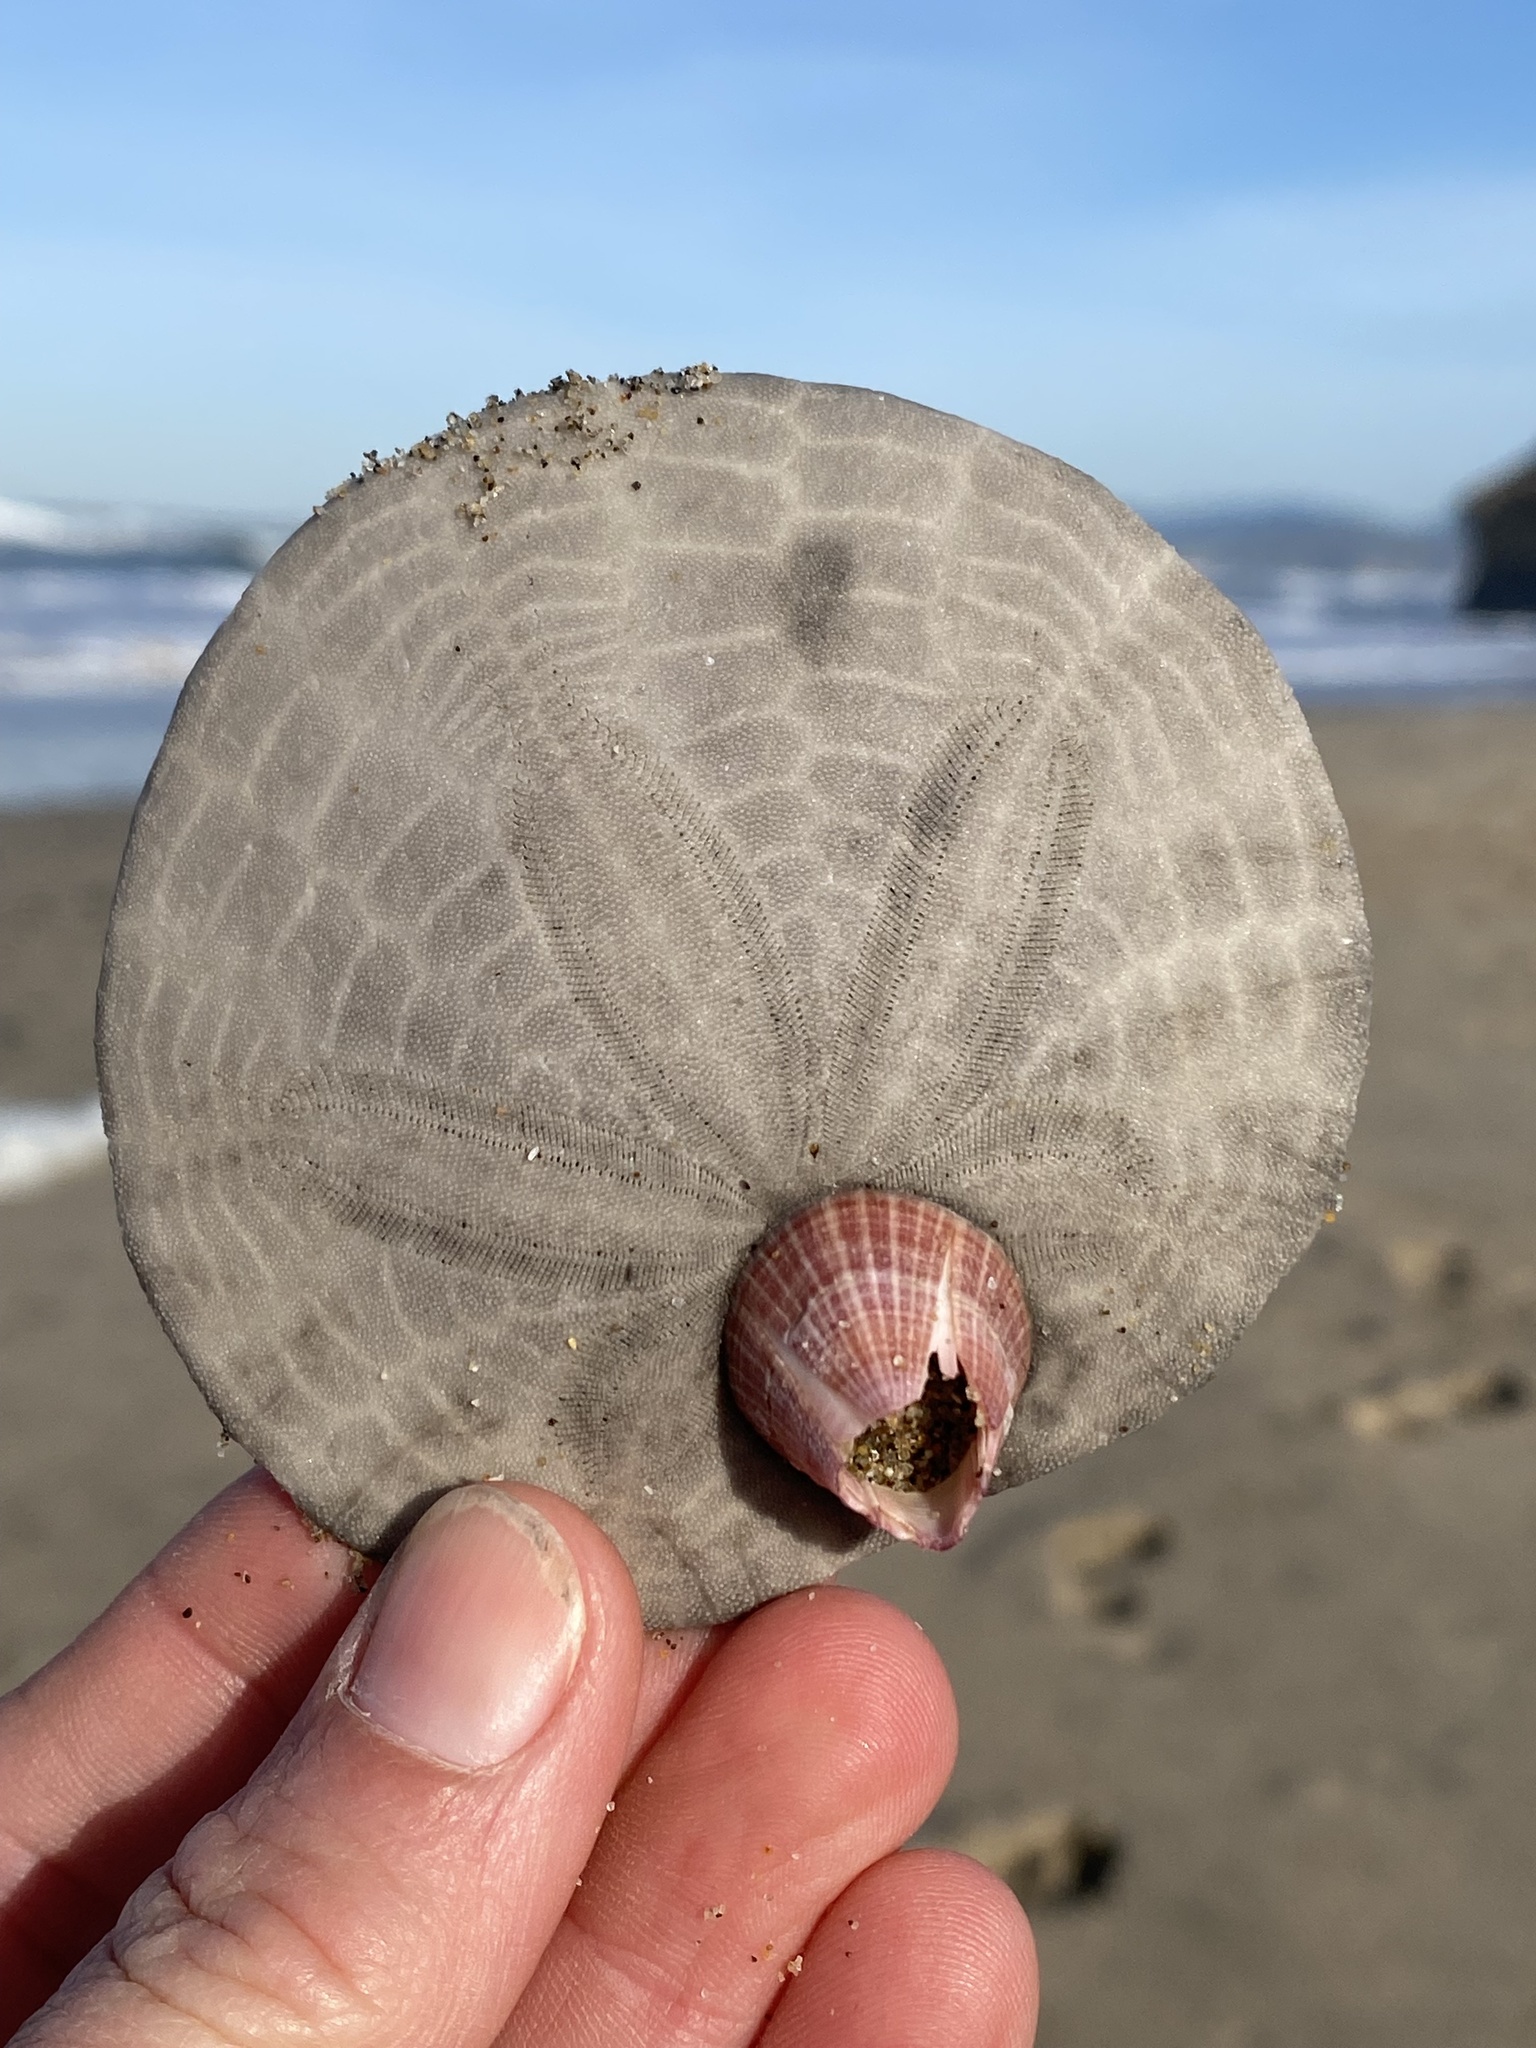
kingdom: Animalia
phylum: Echinodermata
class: Echinoidea
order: Echinolampadacea
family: Dendrasteridae
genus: Dendraster
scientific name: Dendraster excentricus
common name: Eccentric sand dollar sea urchin
